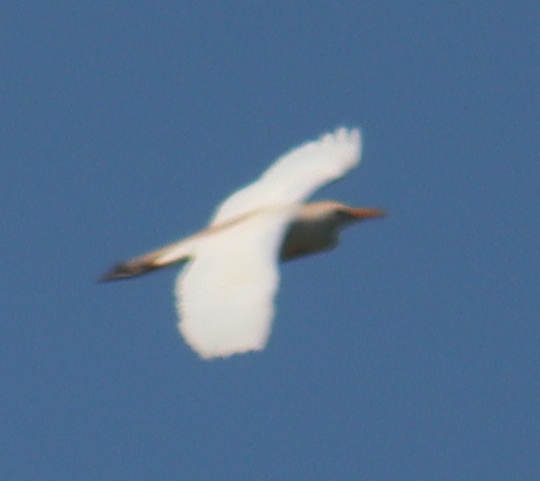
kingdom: Animalia
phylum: Chordata
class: Aves
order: Pelecaniformes
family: Ardeidae
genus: Bubulcus
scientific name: Bubulcus ibis
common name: Cattle egret
